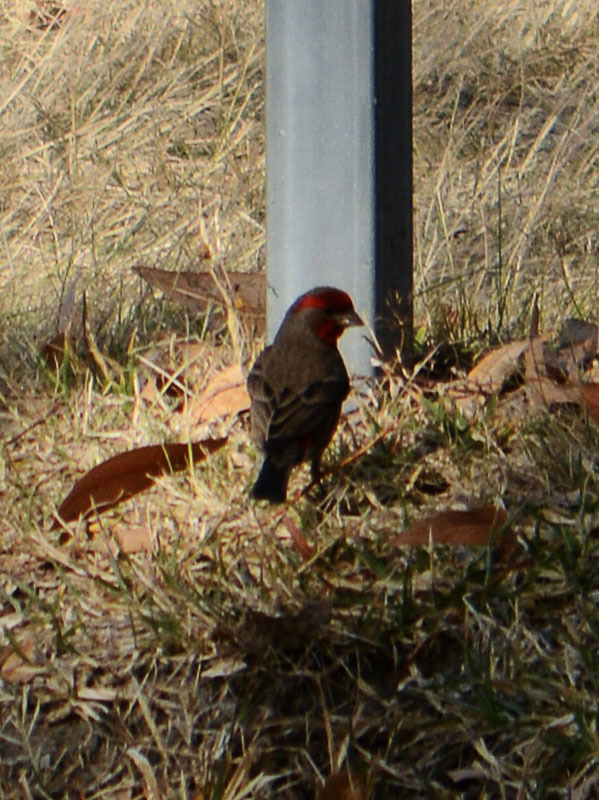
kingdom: Animalia
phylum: Chordata
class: Aves
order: Passeriformes
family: Fringillidae
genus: Haemorhous
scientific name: Haemorhous mexicanus
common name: House finch
